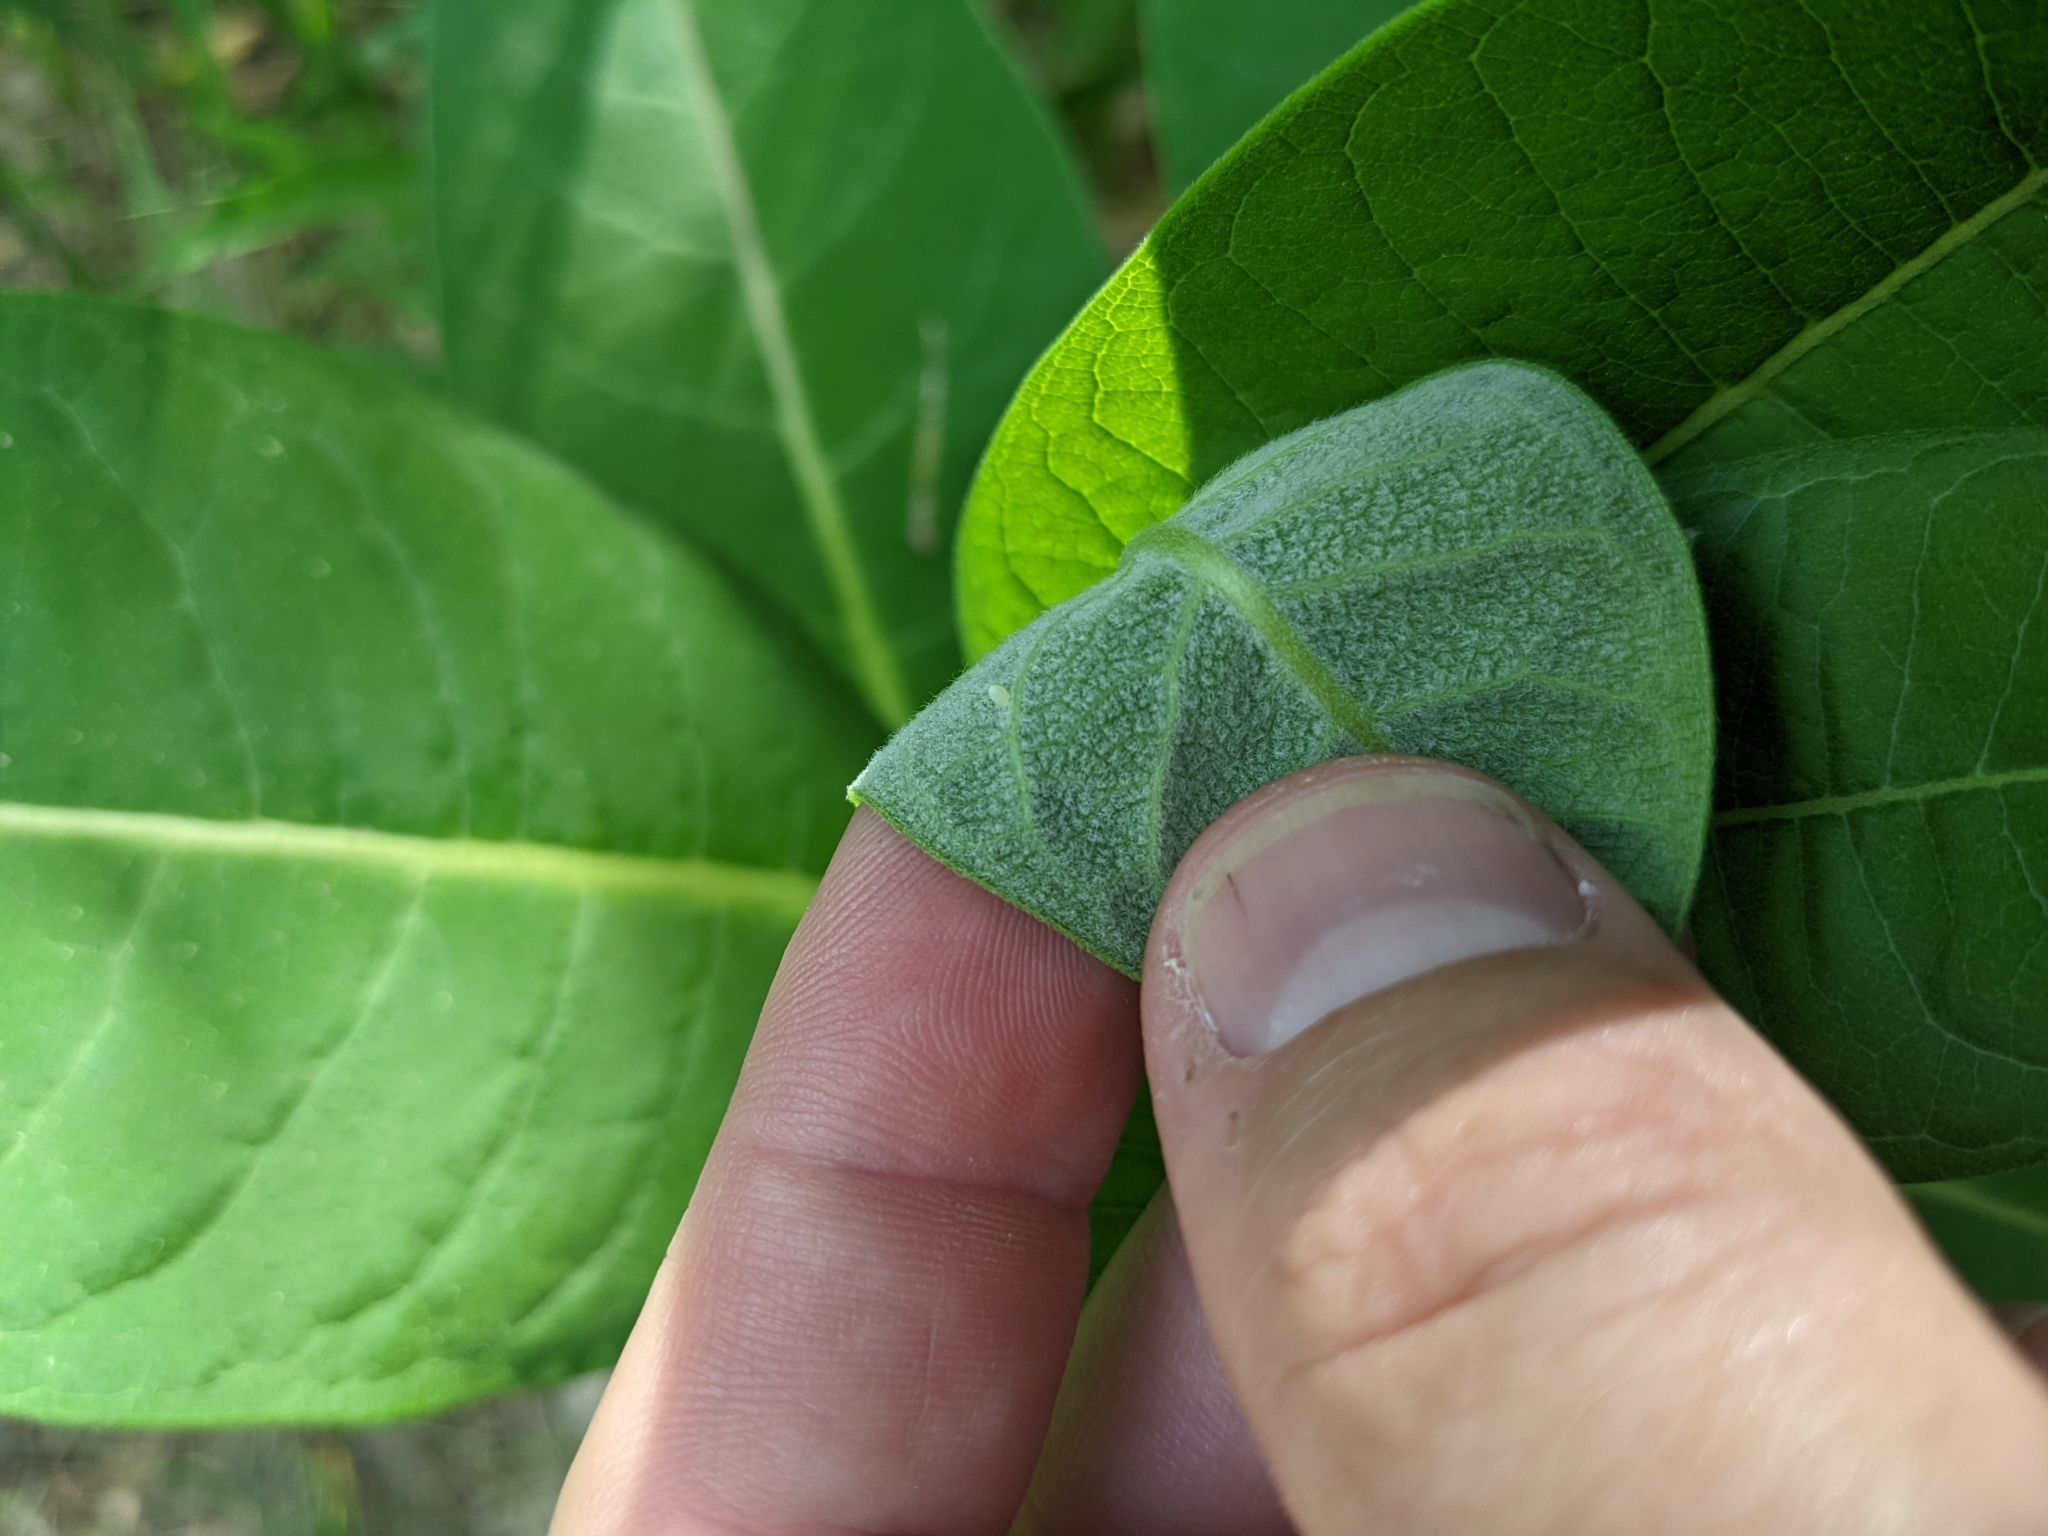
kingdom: Animalia
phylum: Arthropoda
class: Insecta
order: Lepidoptera
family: Nymphalidae
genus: Danaus
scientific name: Danaus plexippus
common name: Monarch
